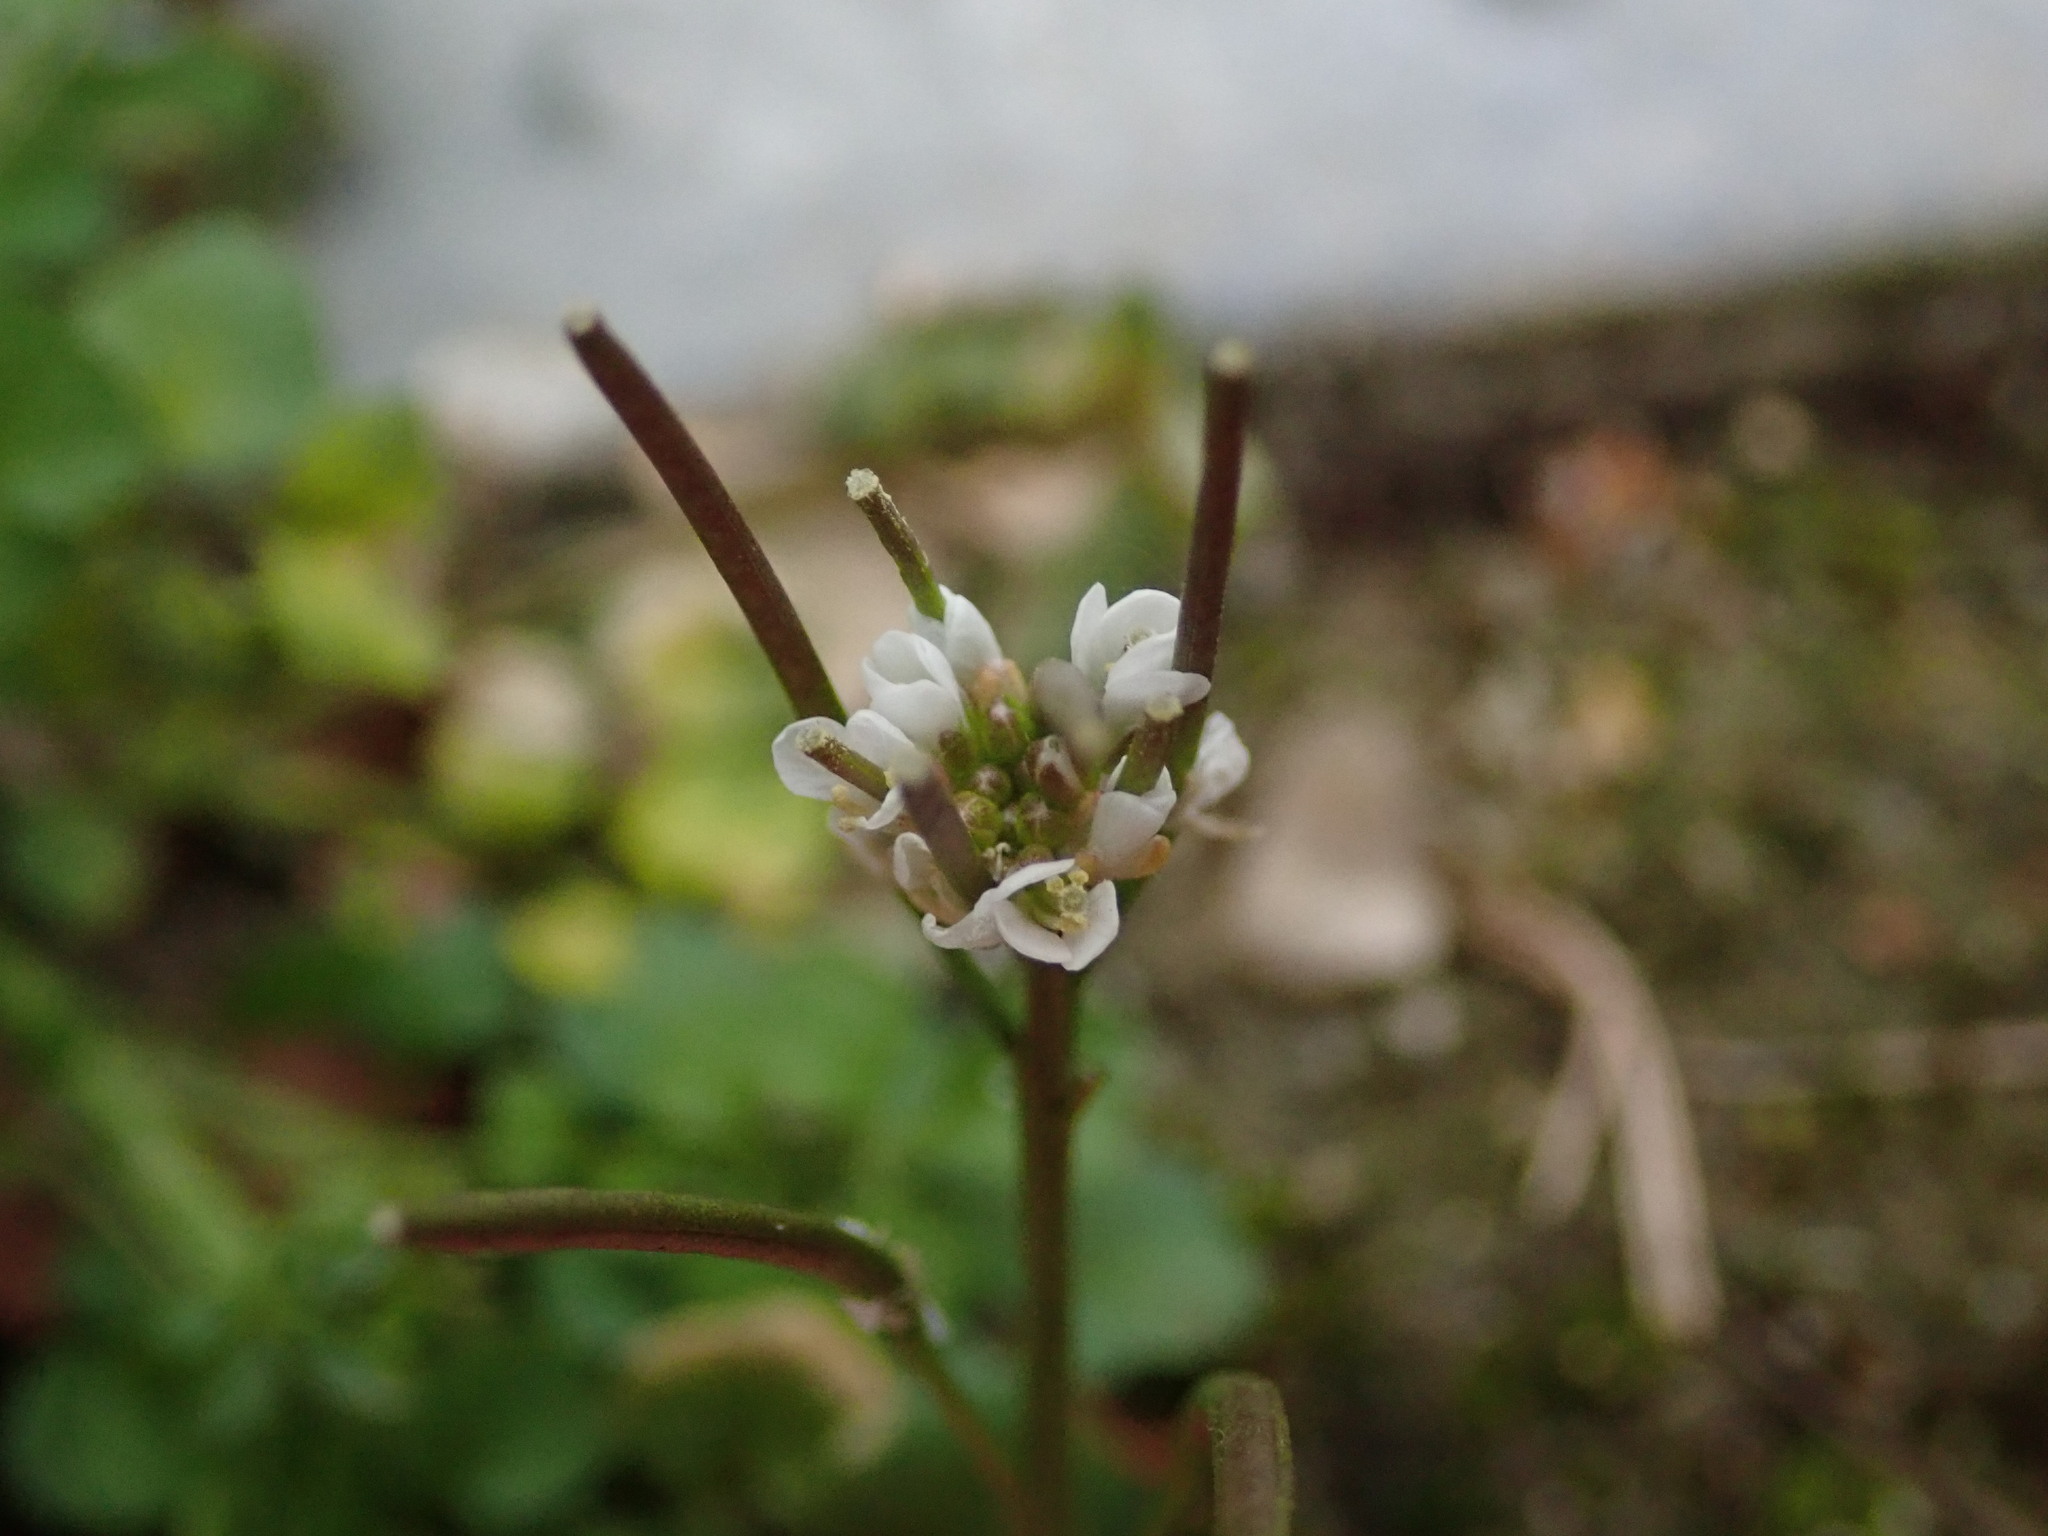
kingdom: Plantae
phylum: Tracheophyta
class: Magnoliopsida
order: Brassicales
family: Brassicaceae
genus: Cardamine
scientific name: Cardamine hirsuta
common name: Hairy bittercress
